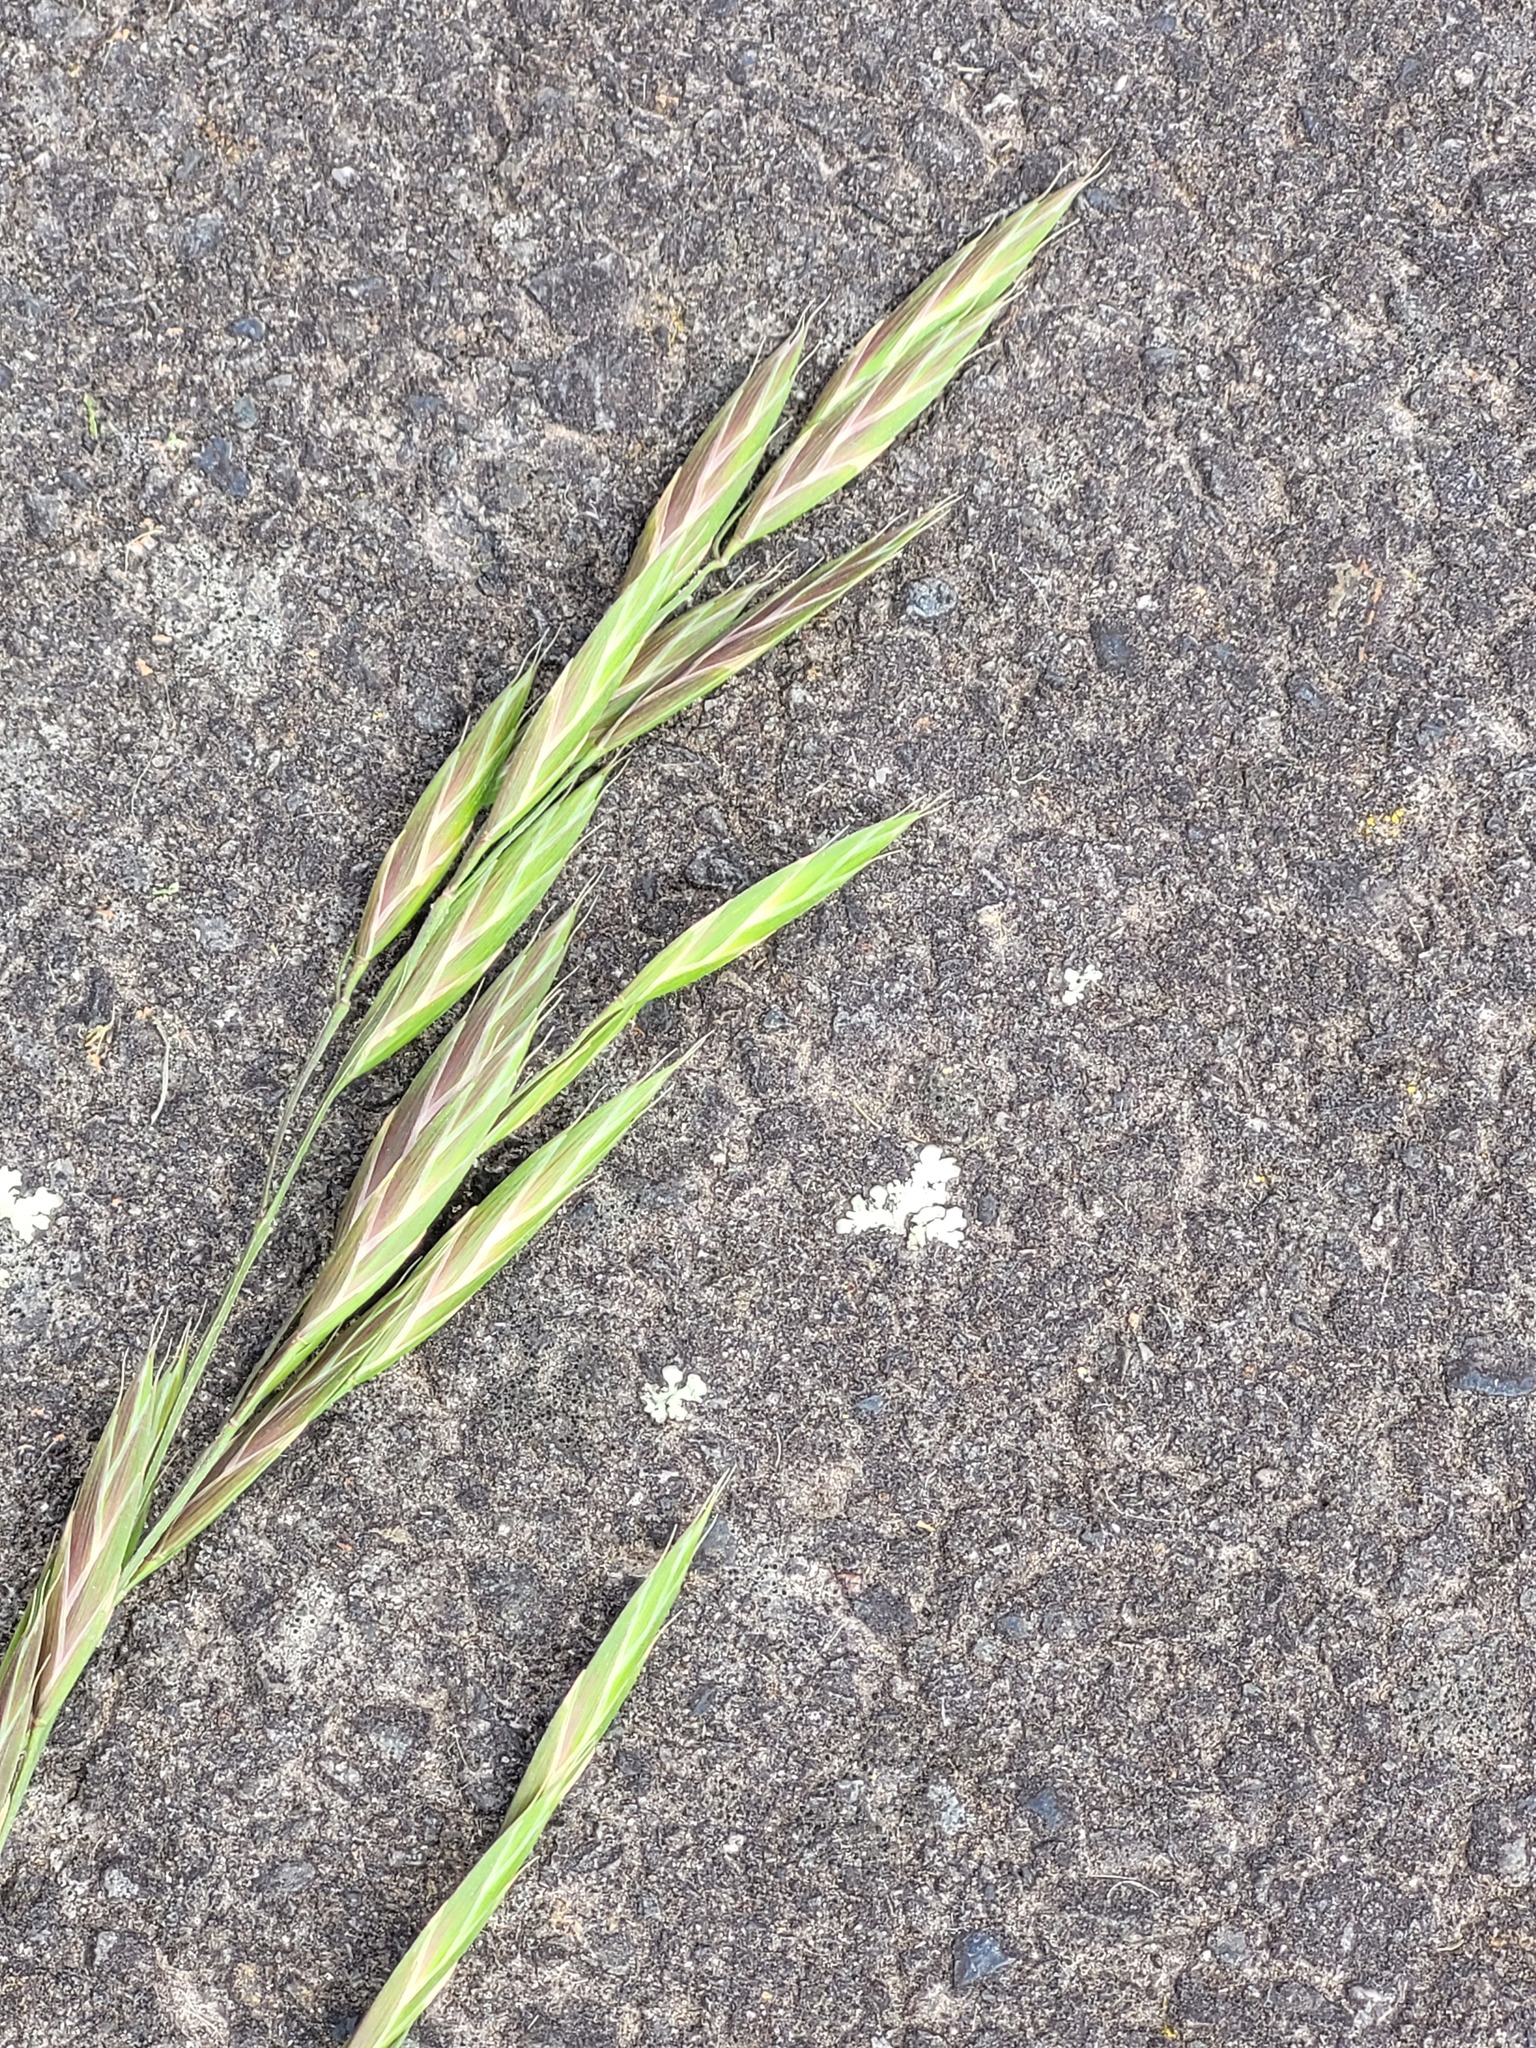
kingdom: Plantae
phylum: Tracheophyta
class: Liliopsida
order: Poales
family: Poaceae
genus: Bromus
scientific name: Bromus catharticus
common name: Rescuegrass
